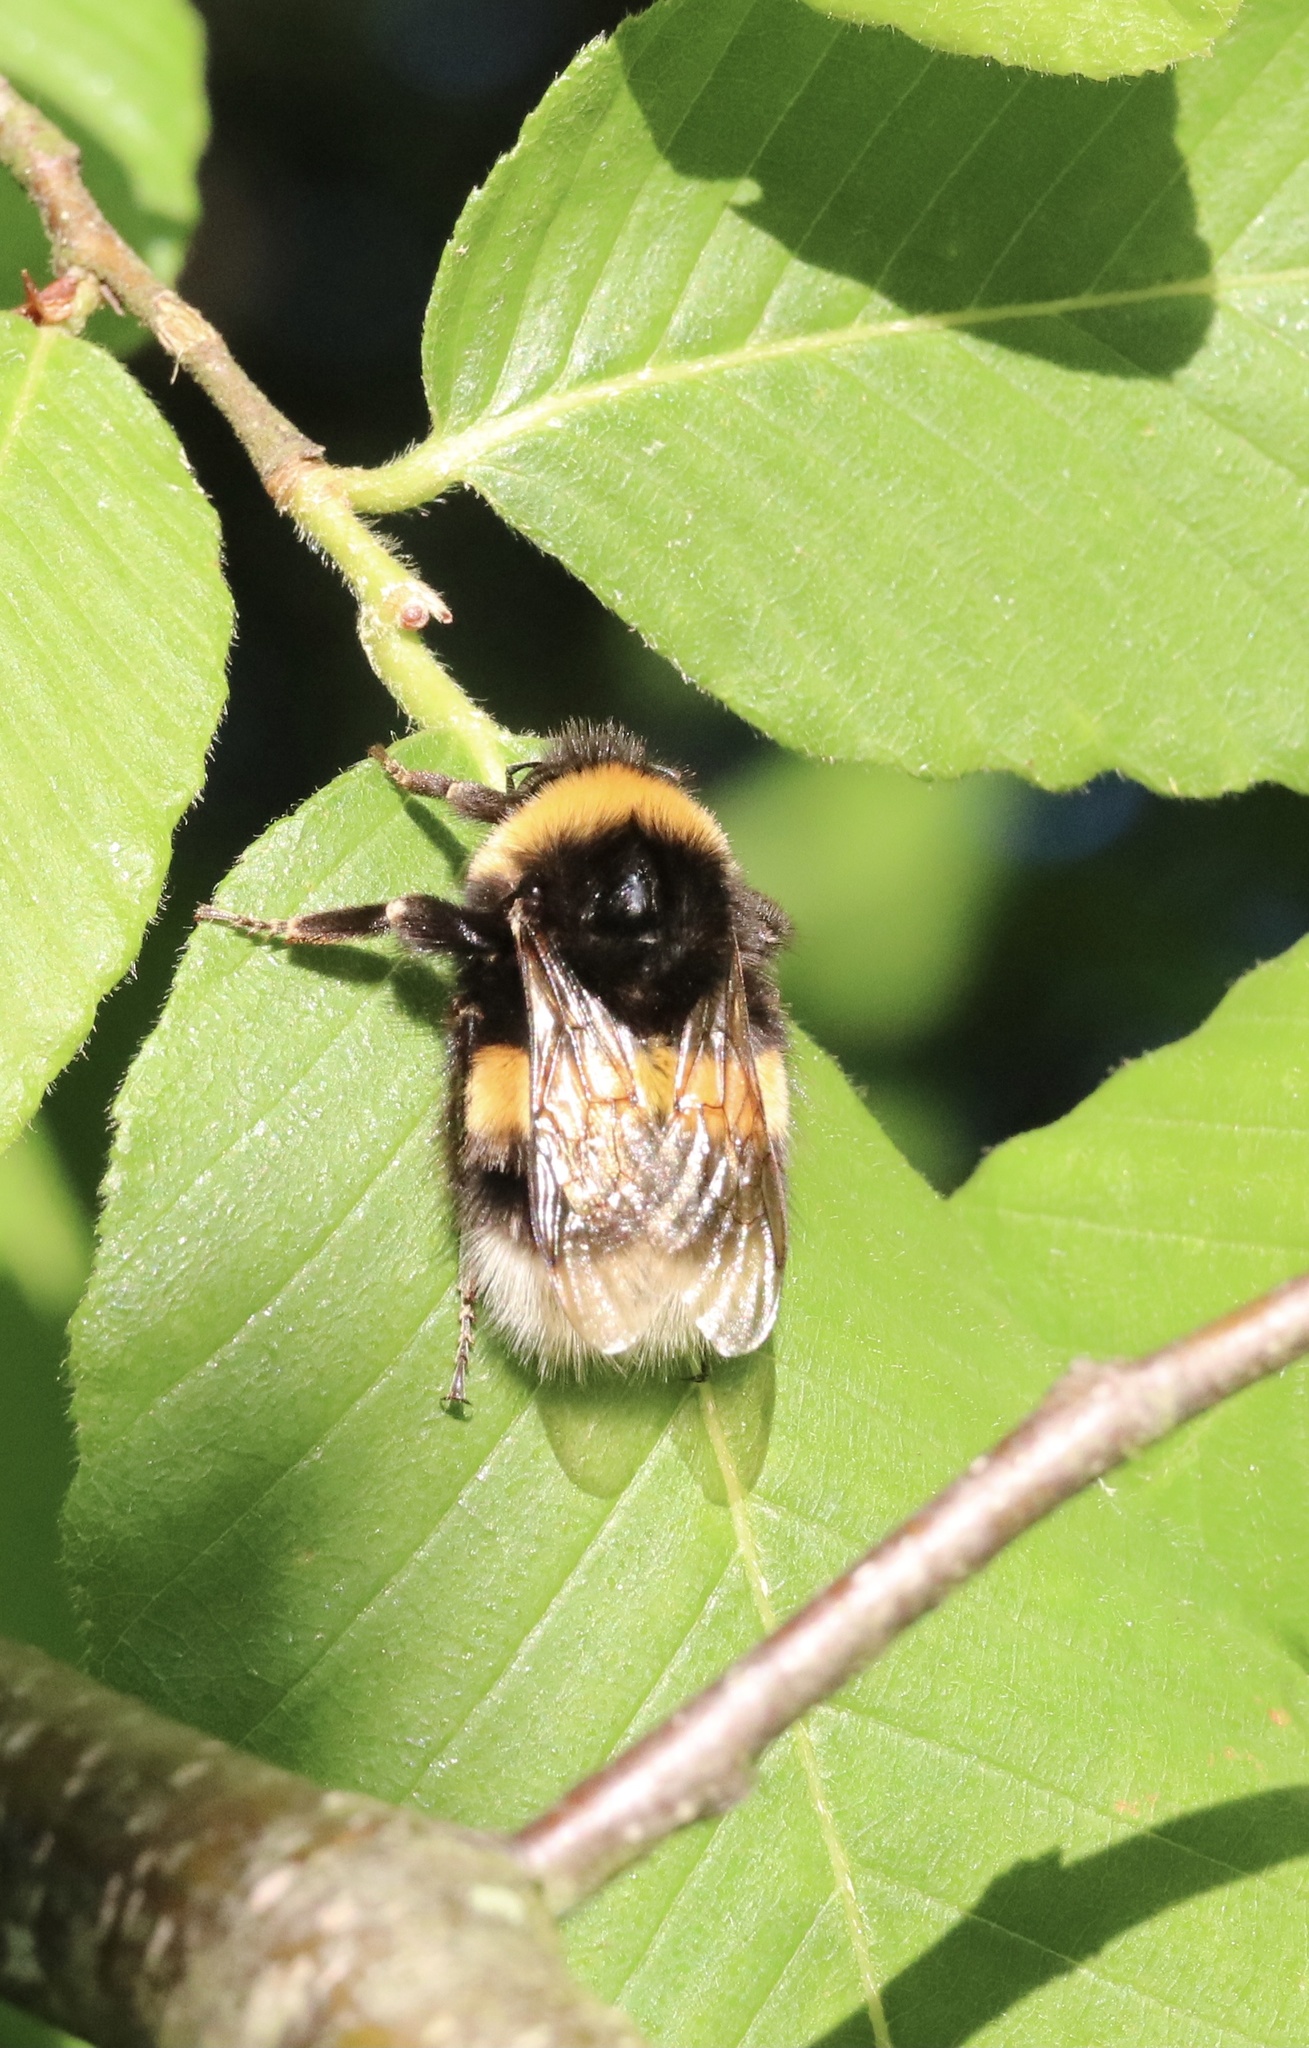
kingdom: Animalia
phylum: Arthropoda
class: Insecta
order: Hymenoptera
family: Apidae
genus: Bombus
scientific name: Bombus terrestris
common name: Buff-tailed bumblebee
